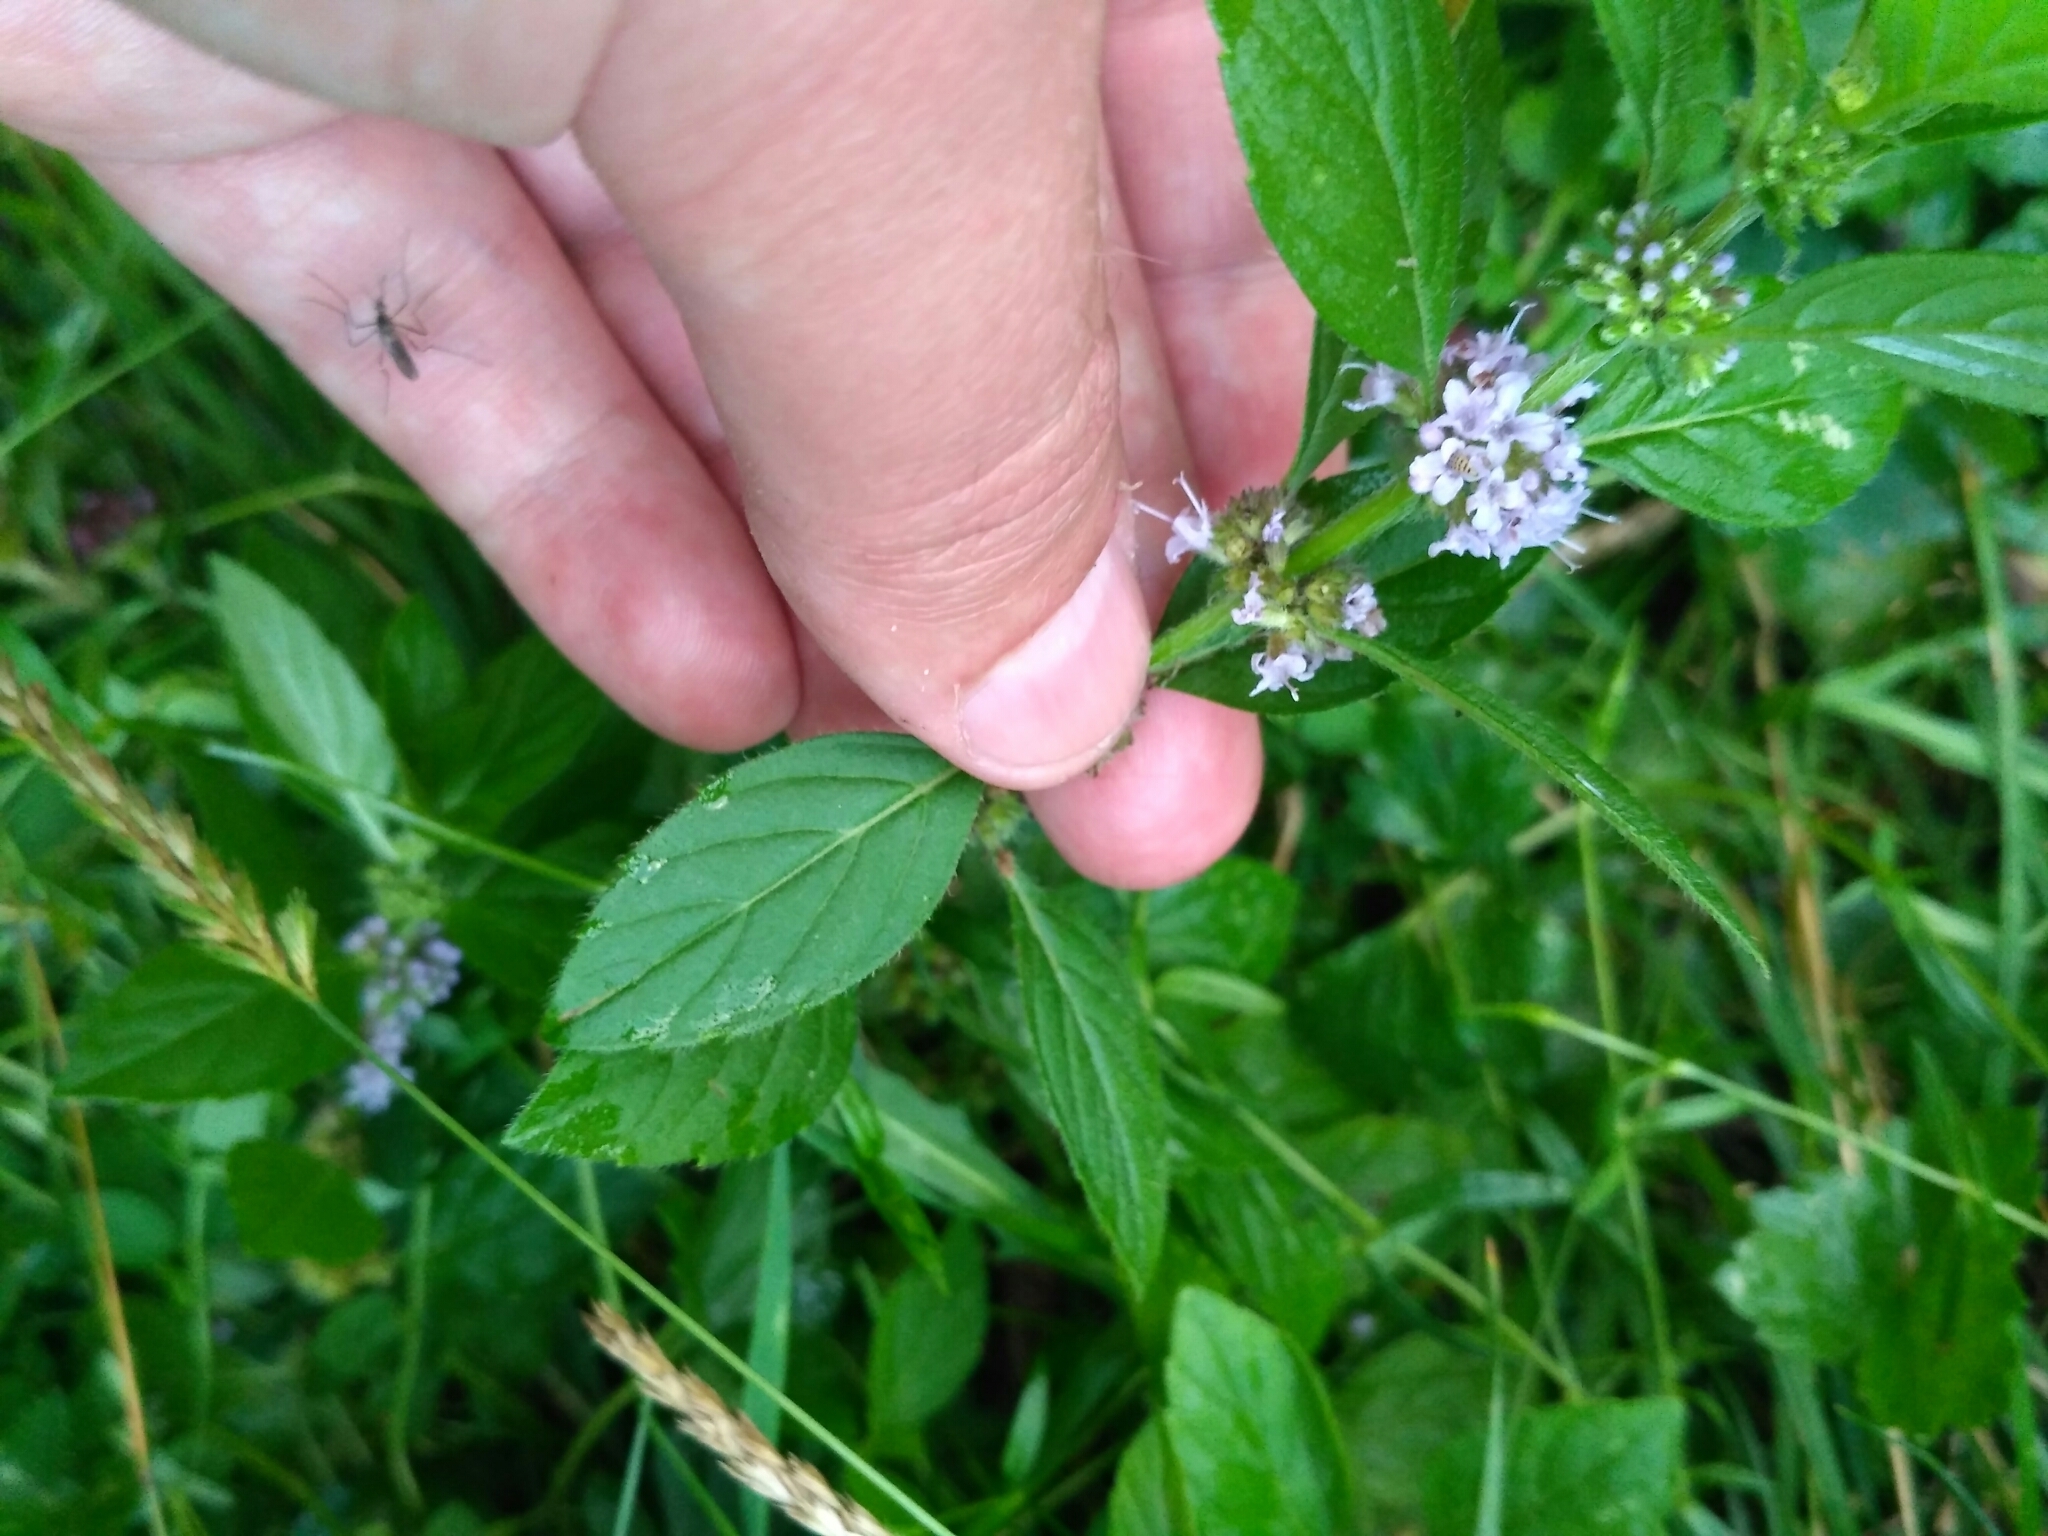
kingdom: Plantae
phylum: Tracheophyta
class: Magnoliopsida
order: Lamiales
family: Lamiaceae
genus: Mentha
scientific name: Mentha arvensis
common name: Corn mint
